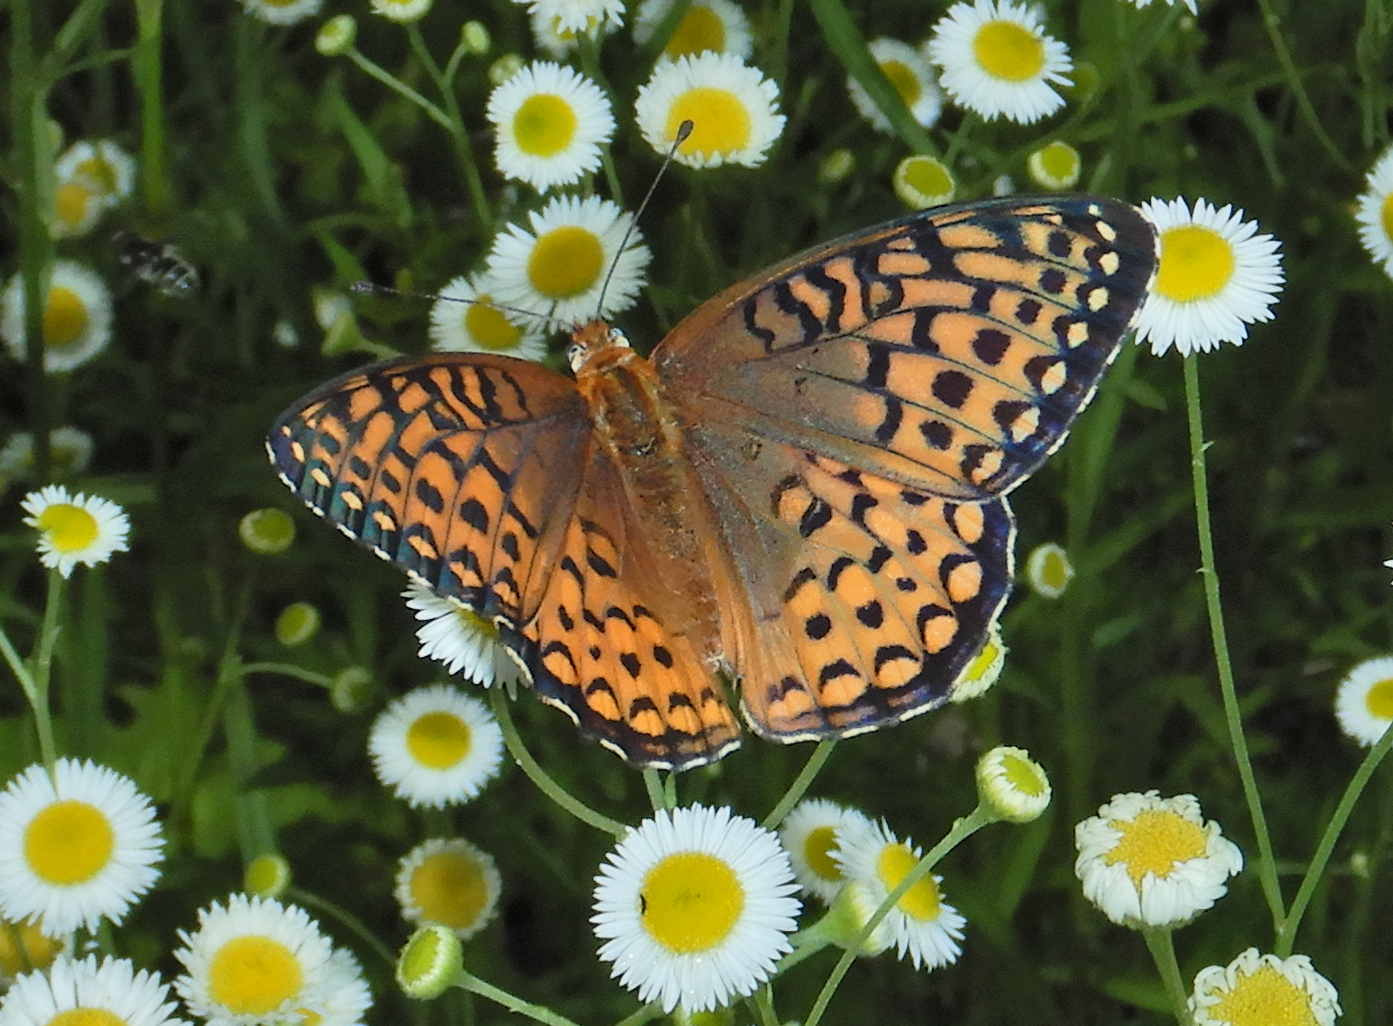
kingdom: Animalia
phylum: Arthropoda
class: Insecta
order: Lepidoptera
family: Nymphalidae
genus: Speyeria
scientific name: Speyeria atlantis
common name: Atlantis fritillary
